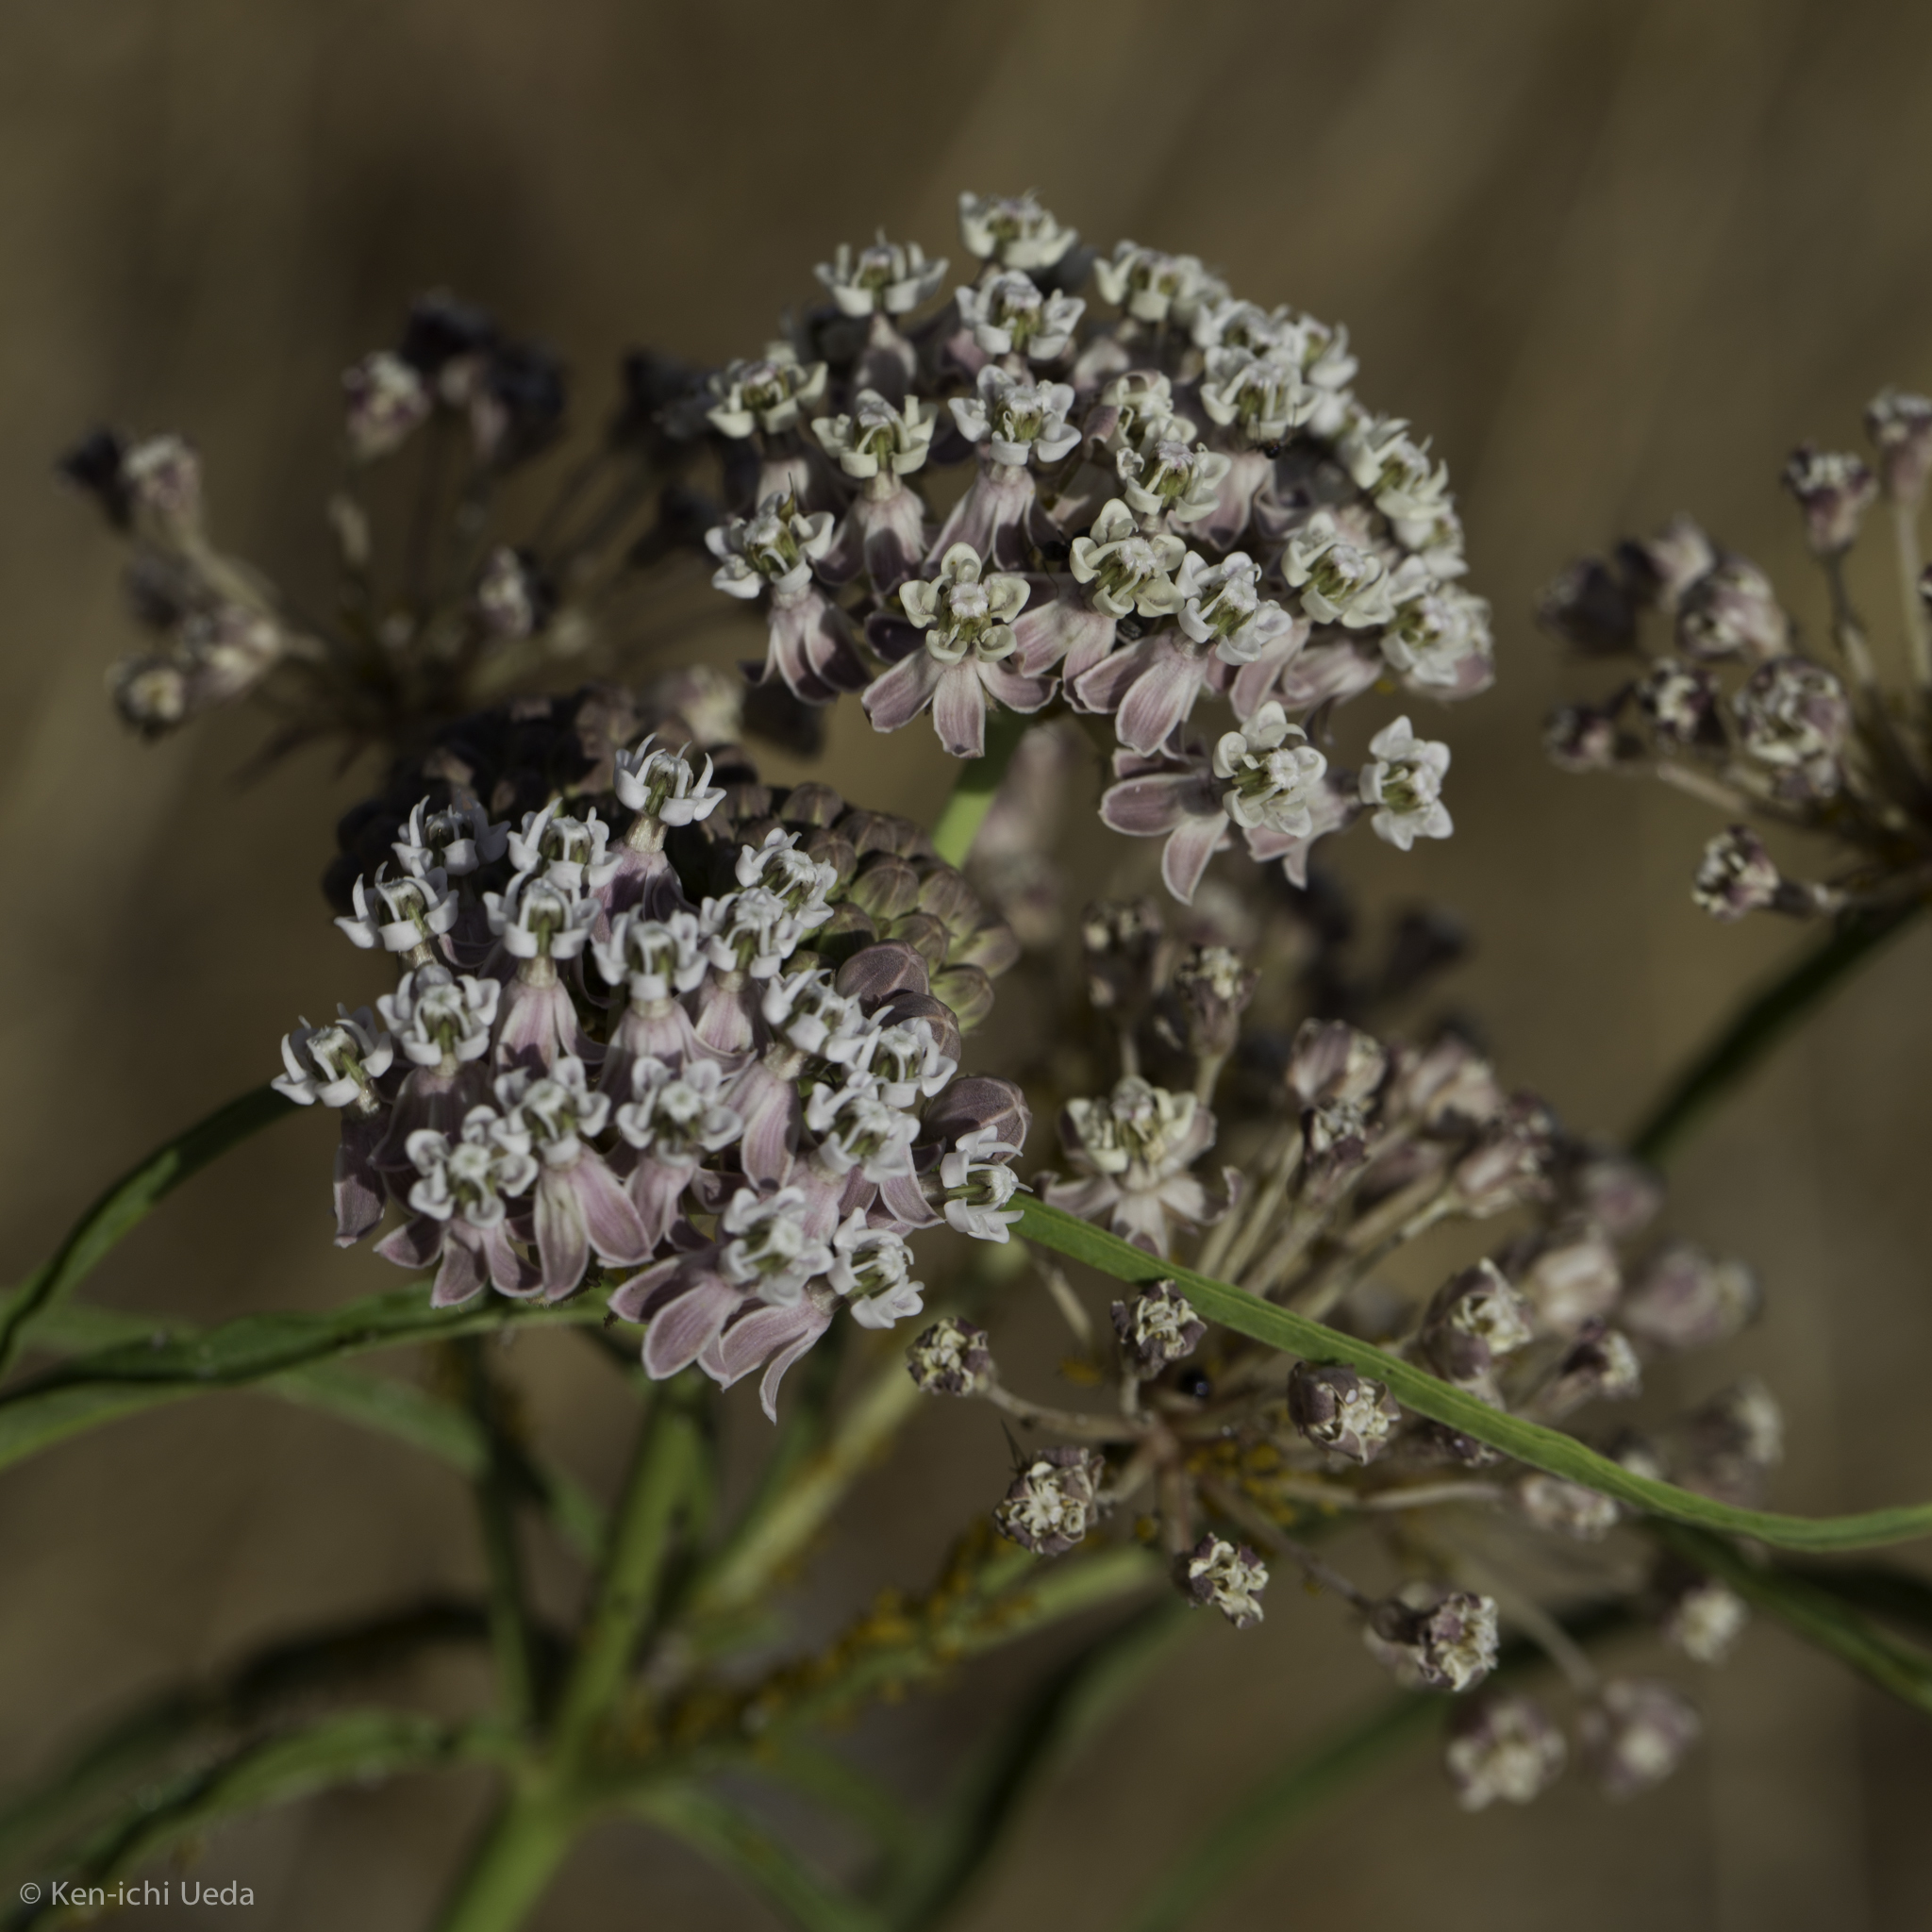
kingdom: Plantae
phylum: Tracheophyta
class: Magnoliopsida
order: Gentianales
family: Apocynaceae
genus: Asclepias
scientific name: Asclepias fascicularis
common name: Mexican milkweed
